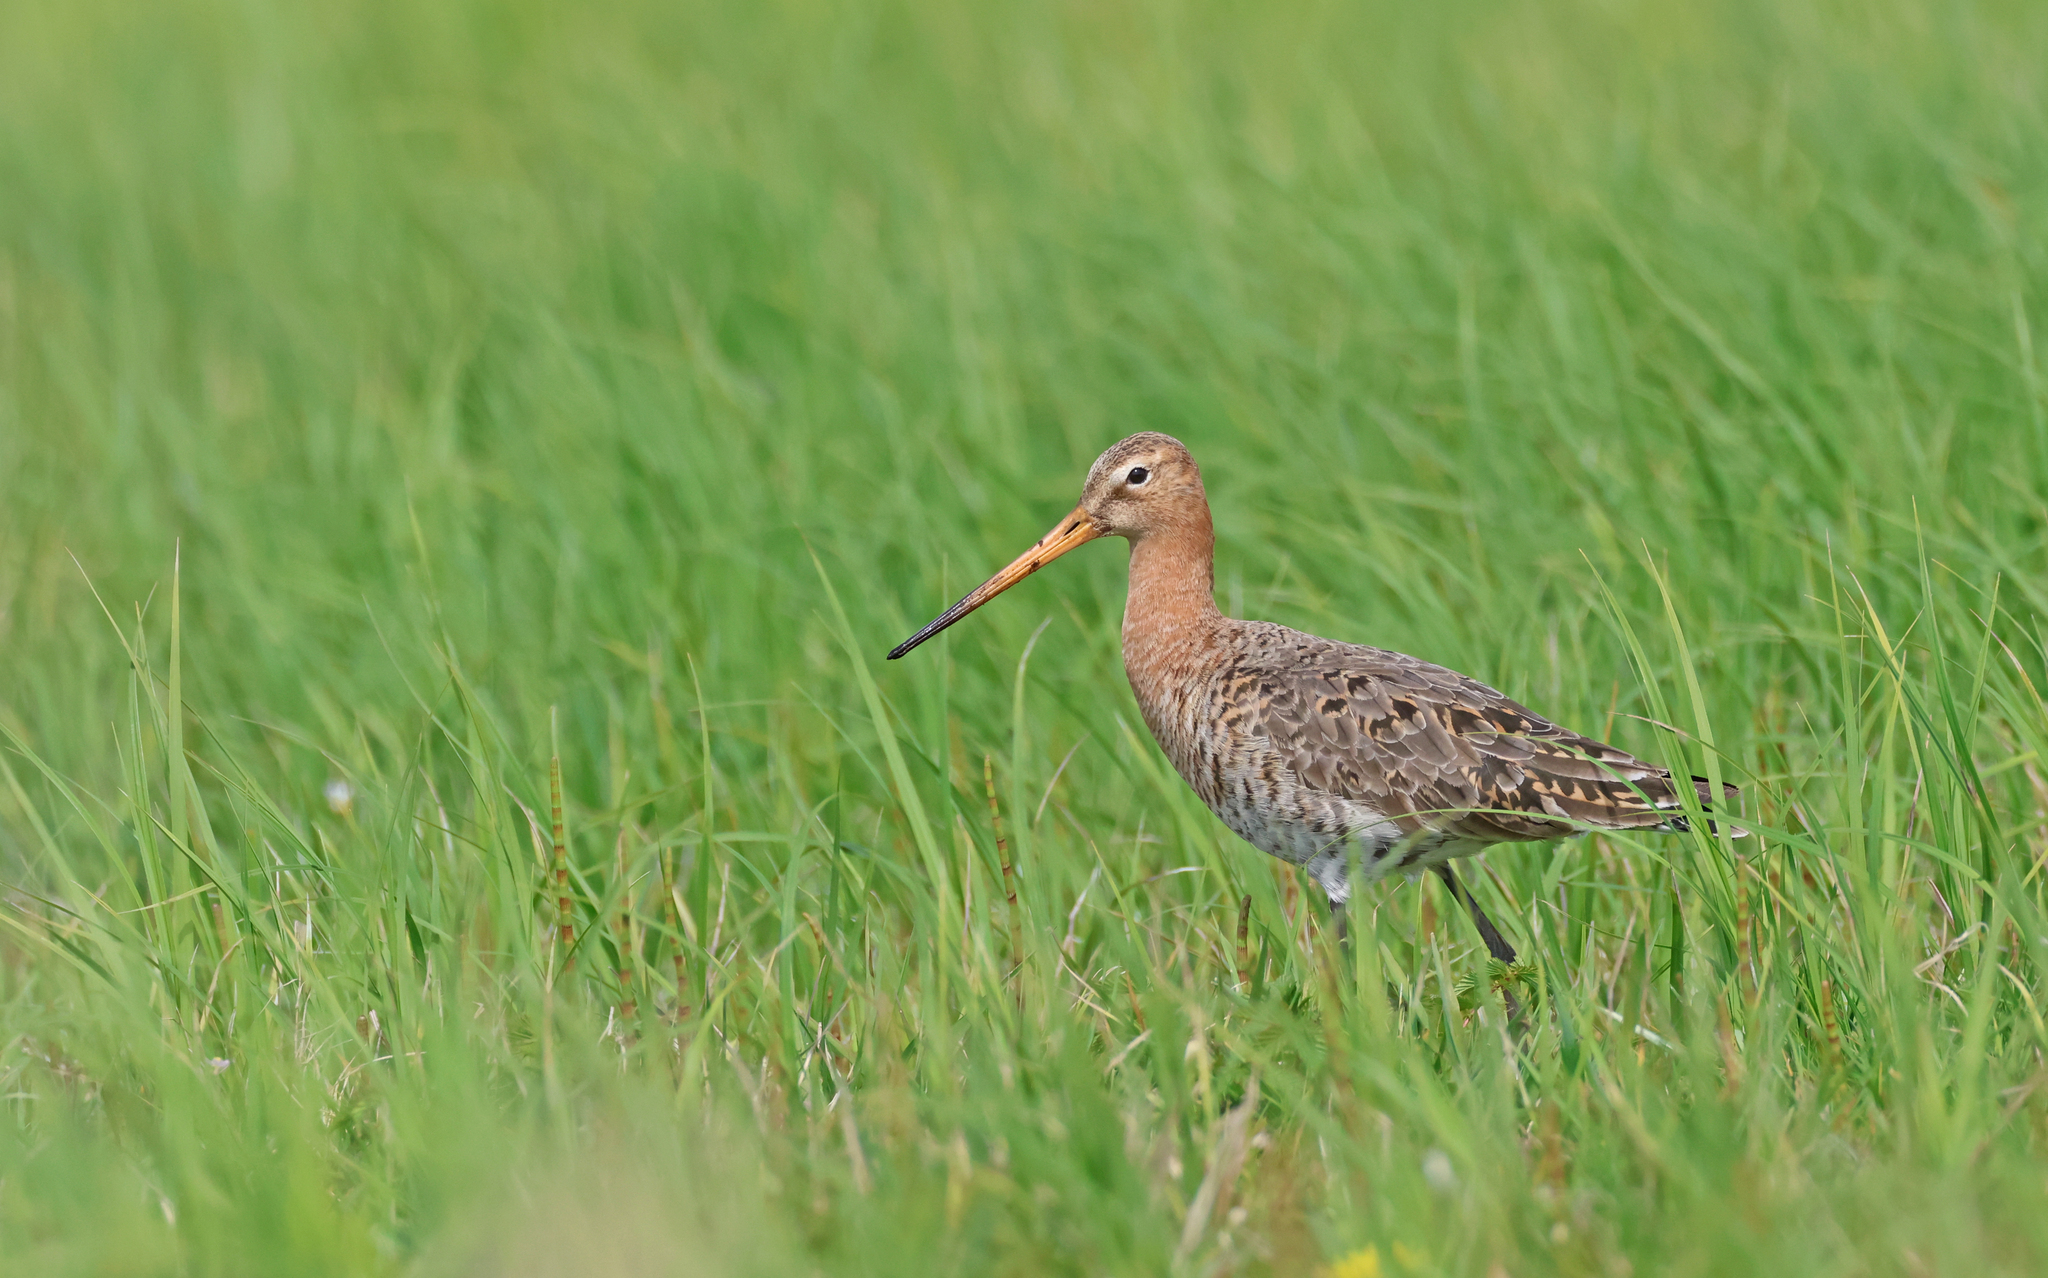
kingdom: Animalia
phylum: Chordata
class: Aves
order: Charadriiformes
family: Scolopacidae
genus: Limosa
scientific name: Limosa limosa
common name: Black-tailed godwit
